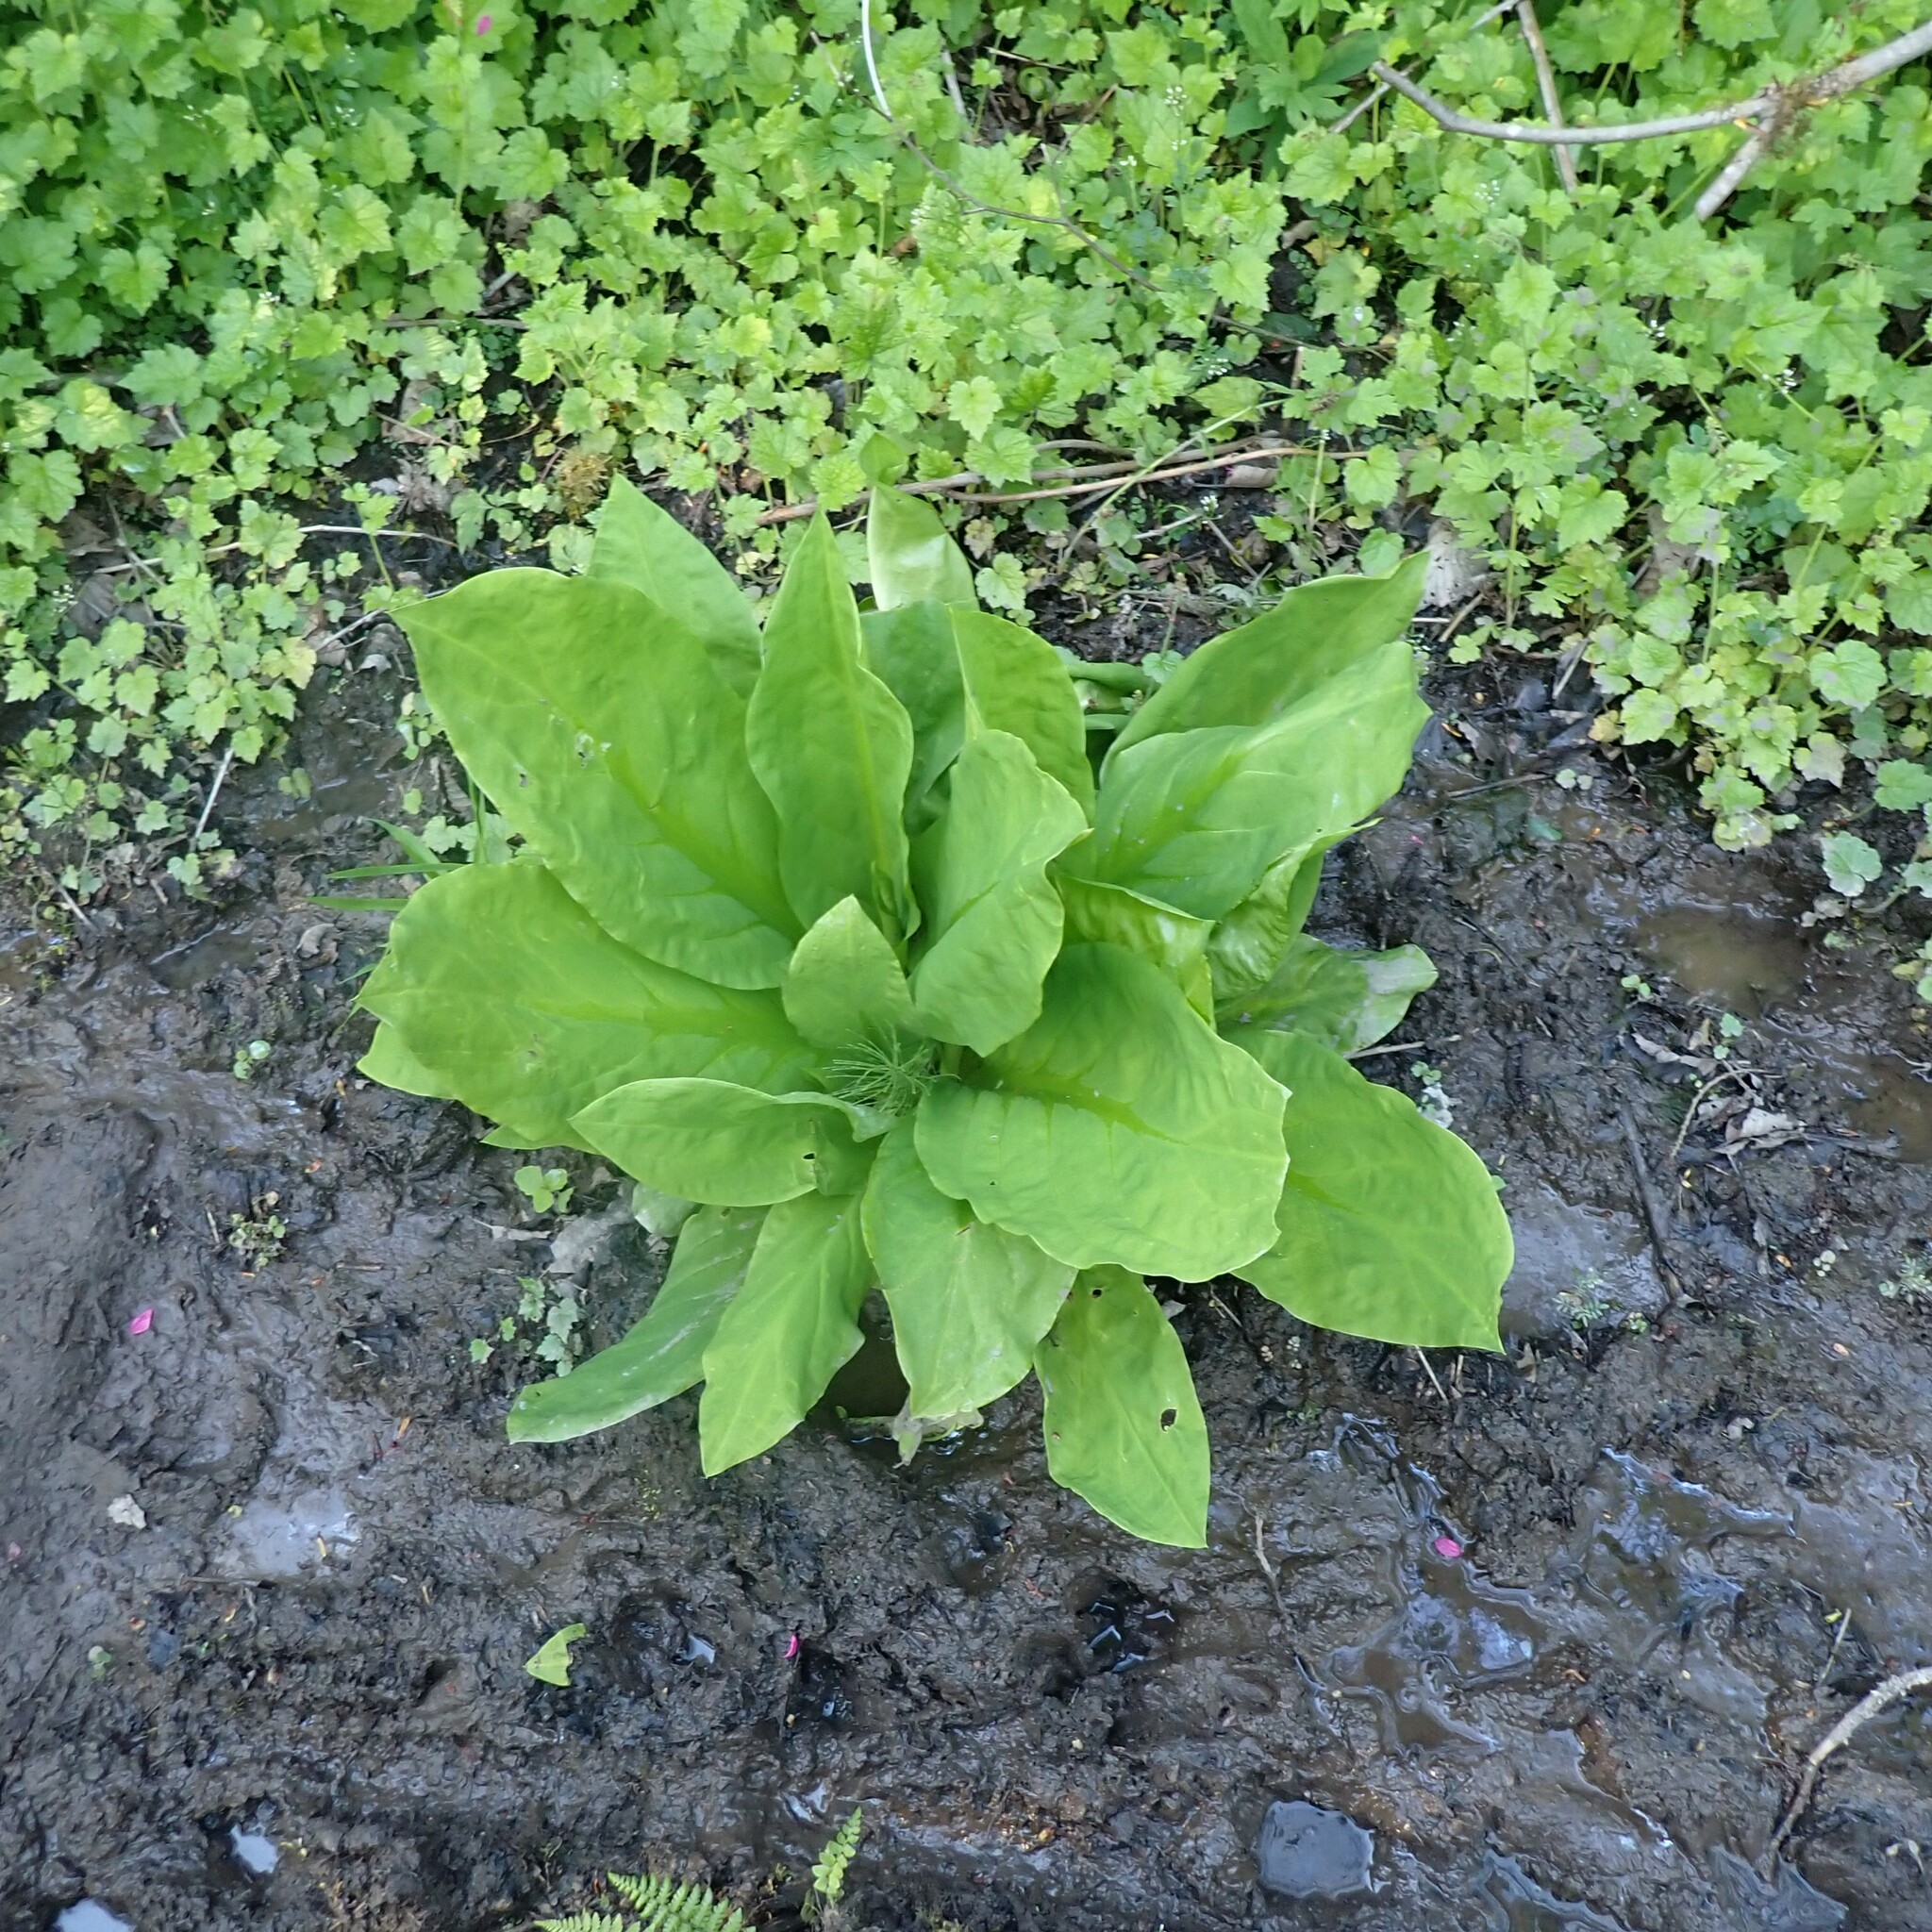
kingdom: Plantae
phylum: Tracheophyta
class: Liliopsida
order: Alismatales
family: Araceae
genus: Lysichiton
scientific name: Lysichiton americanus
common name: American skunk cabbage
